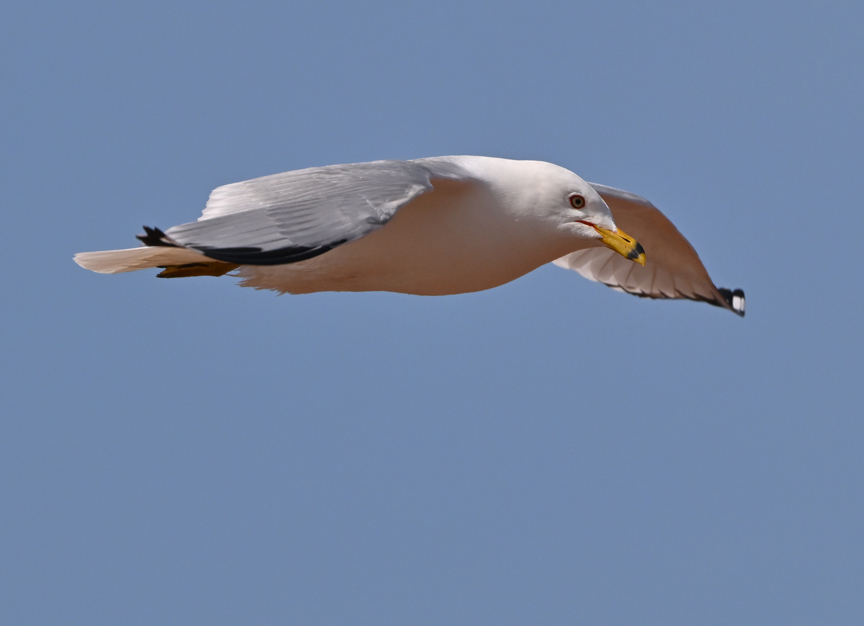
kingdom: Animalia
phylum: Chordata
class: Aves
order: Charadriiformes
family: Laridae
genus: Larus
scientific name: Larus delawarensis
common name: Ring-billed gull
